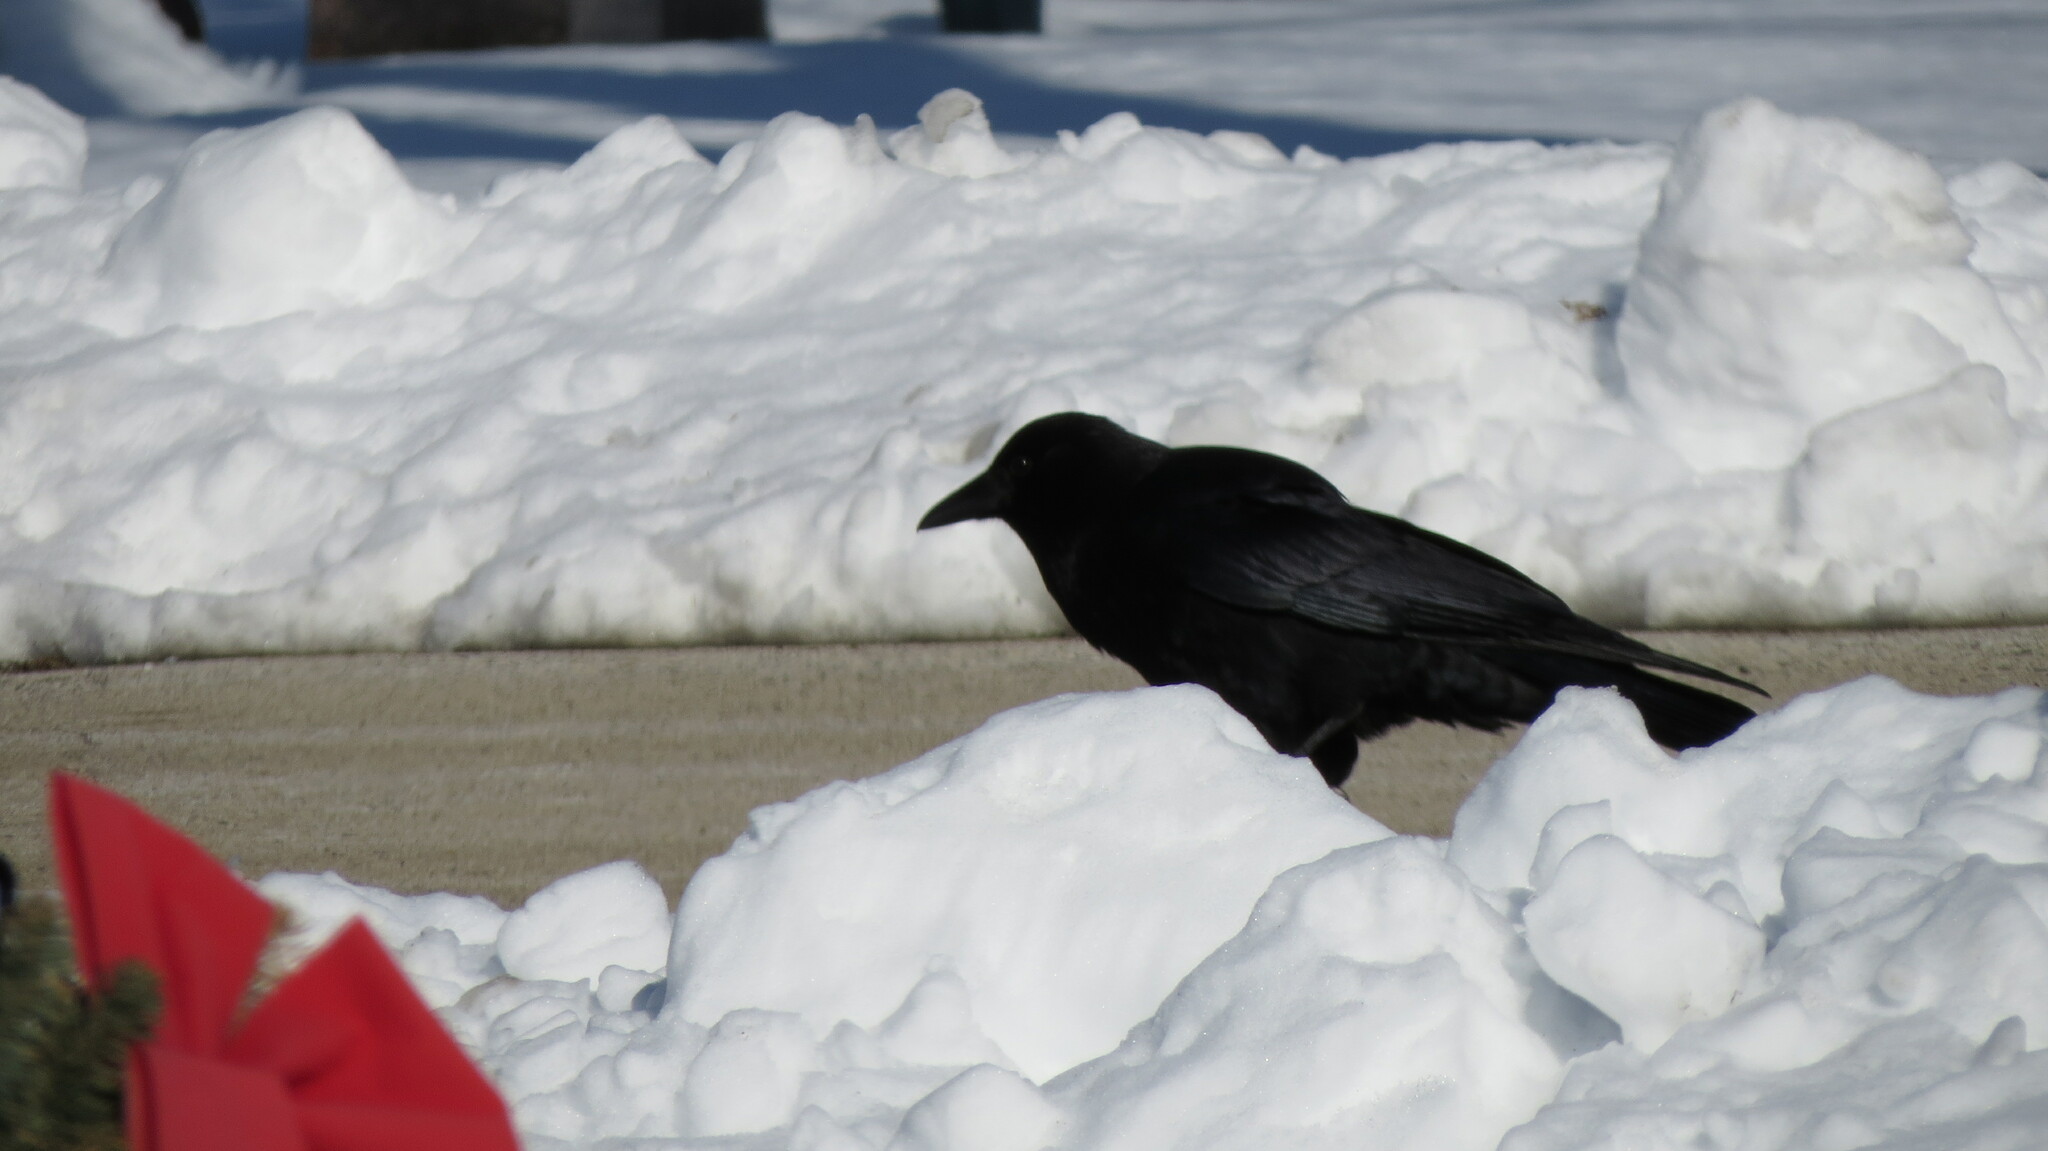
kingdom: Animalia
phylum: Chordata
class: Aves
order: Passeriformes
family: Corvidae
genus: Corvus
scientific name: Corvus brachyrhynchos
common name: American crow
